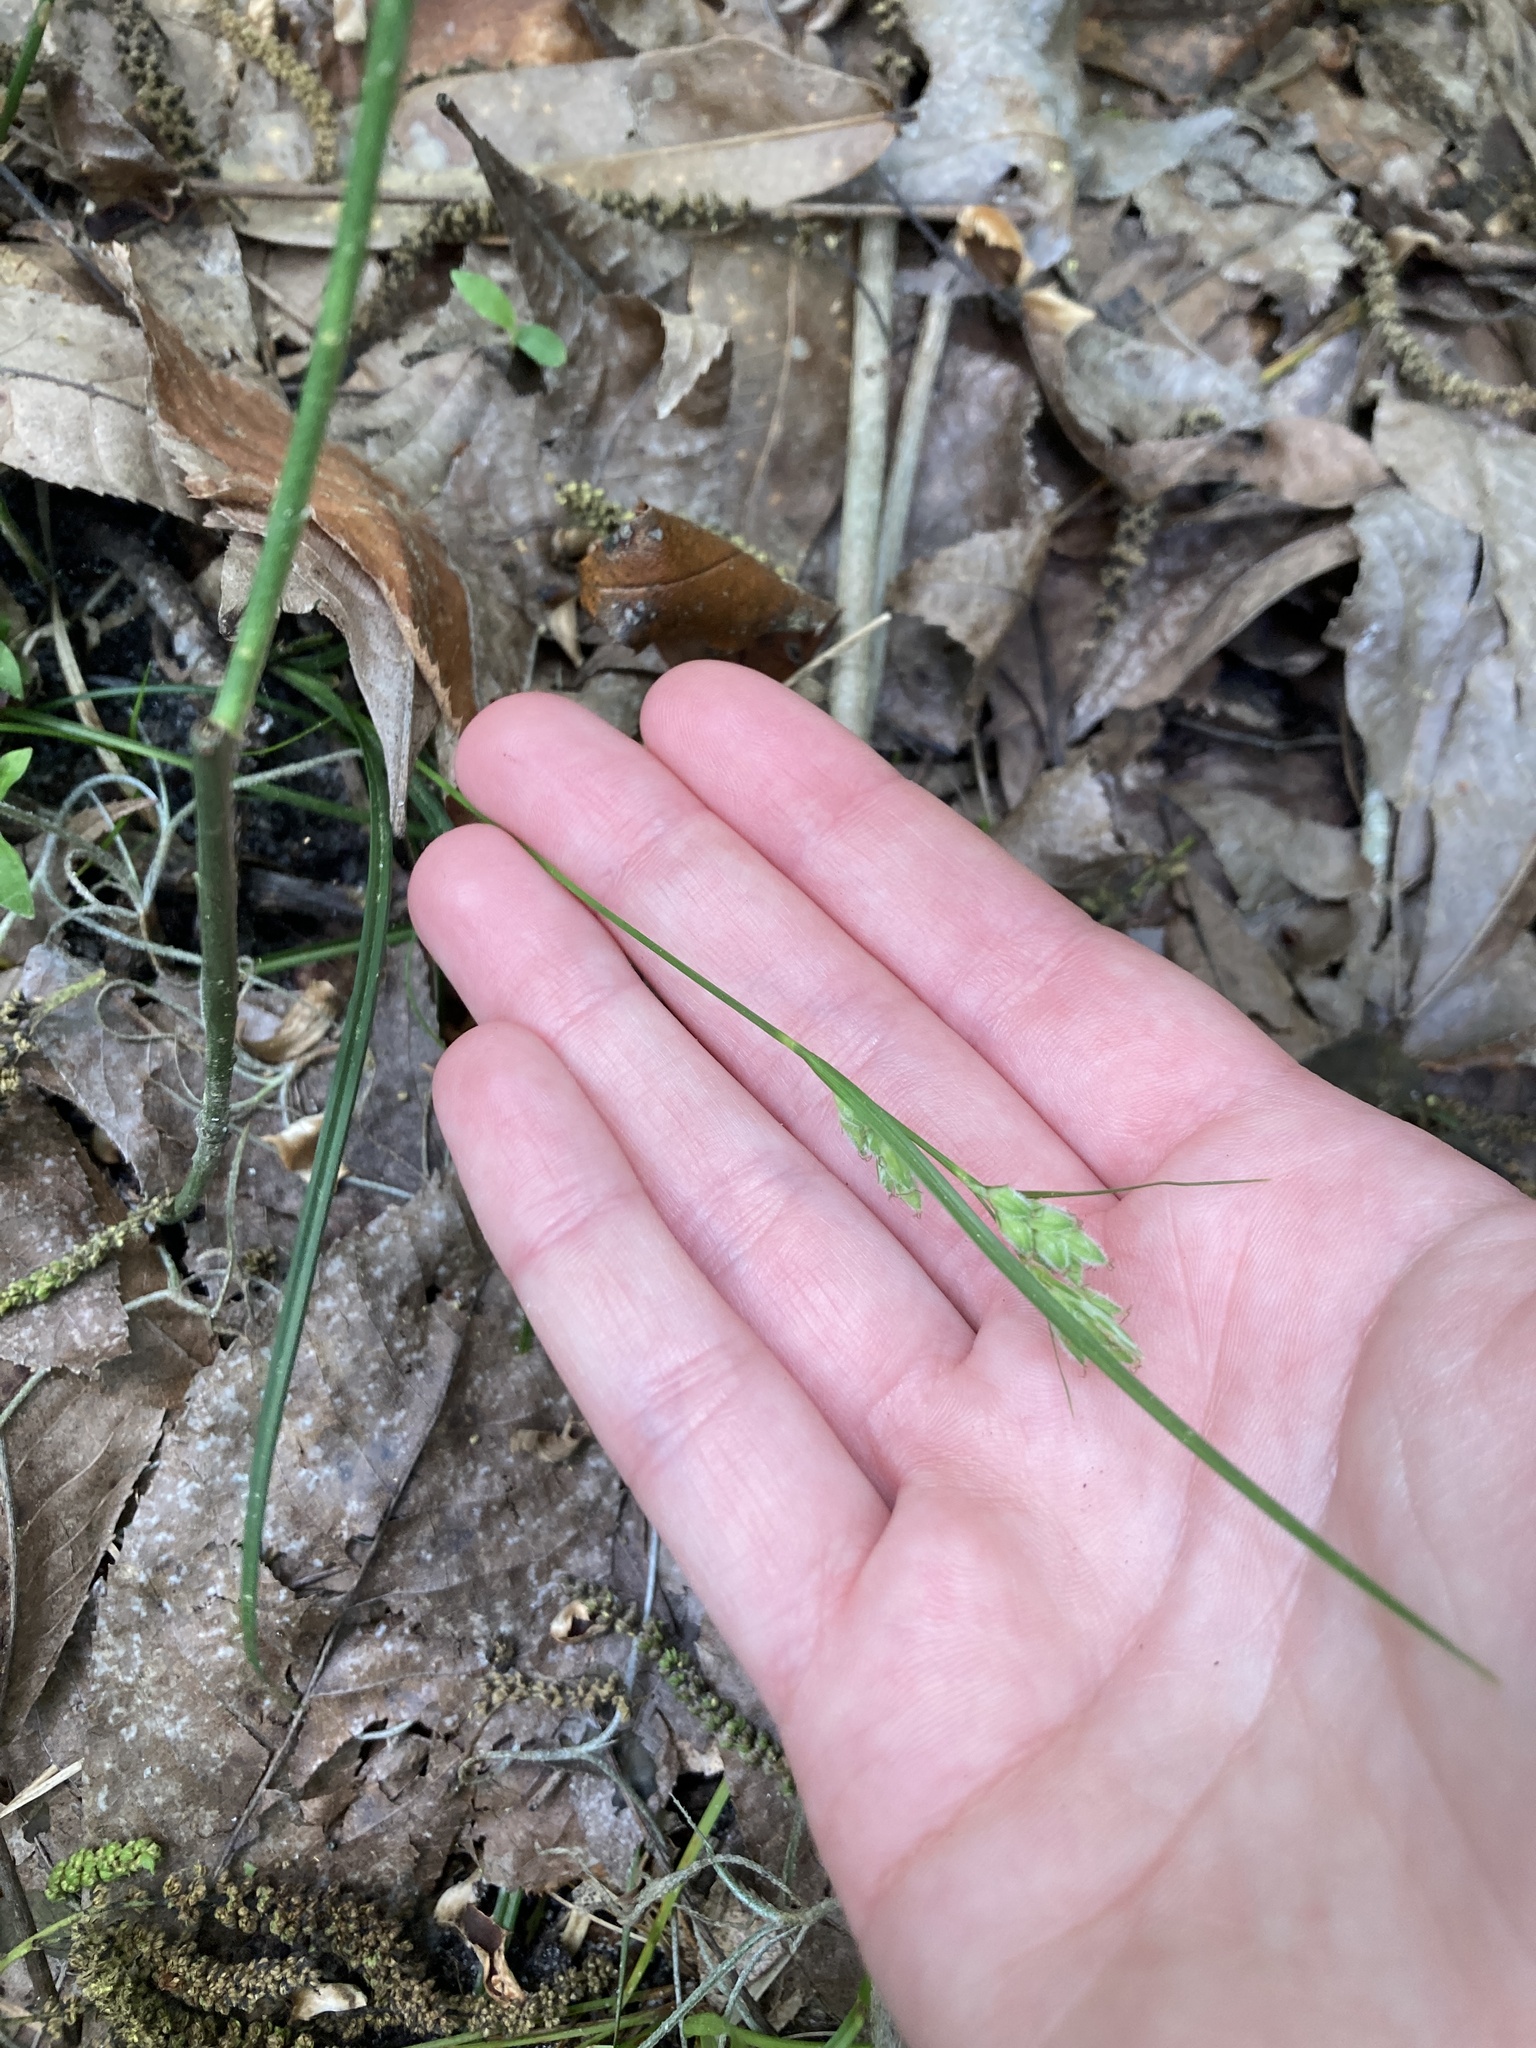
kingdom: Plantae
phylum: Tracheophyta
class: Liliopsida
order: Poales
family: Cyperaceae
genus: Carex
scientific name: Carex dasycarpa
